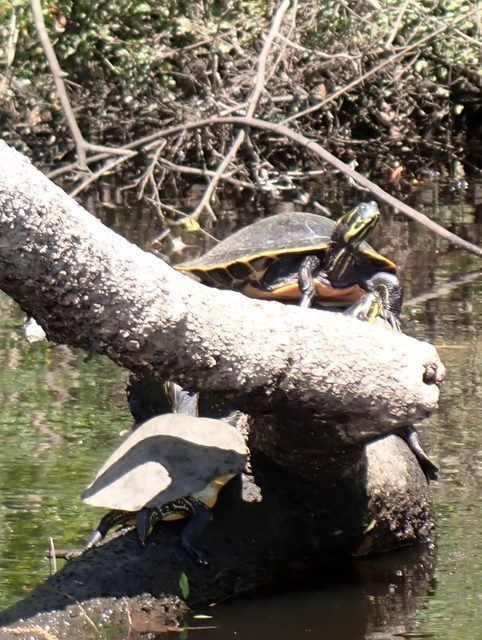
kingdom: Animalia
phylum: Chordata
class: Testudines
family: Emydidae
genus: Pseudemys
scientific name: Pseudemys concinna
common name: Eastern river cooter
